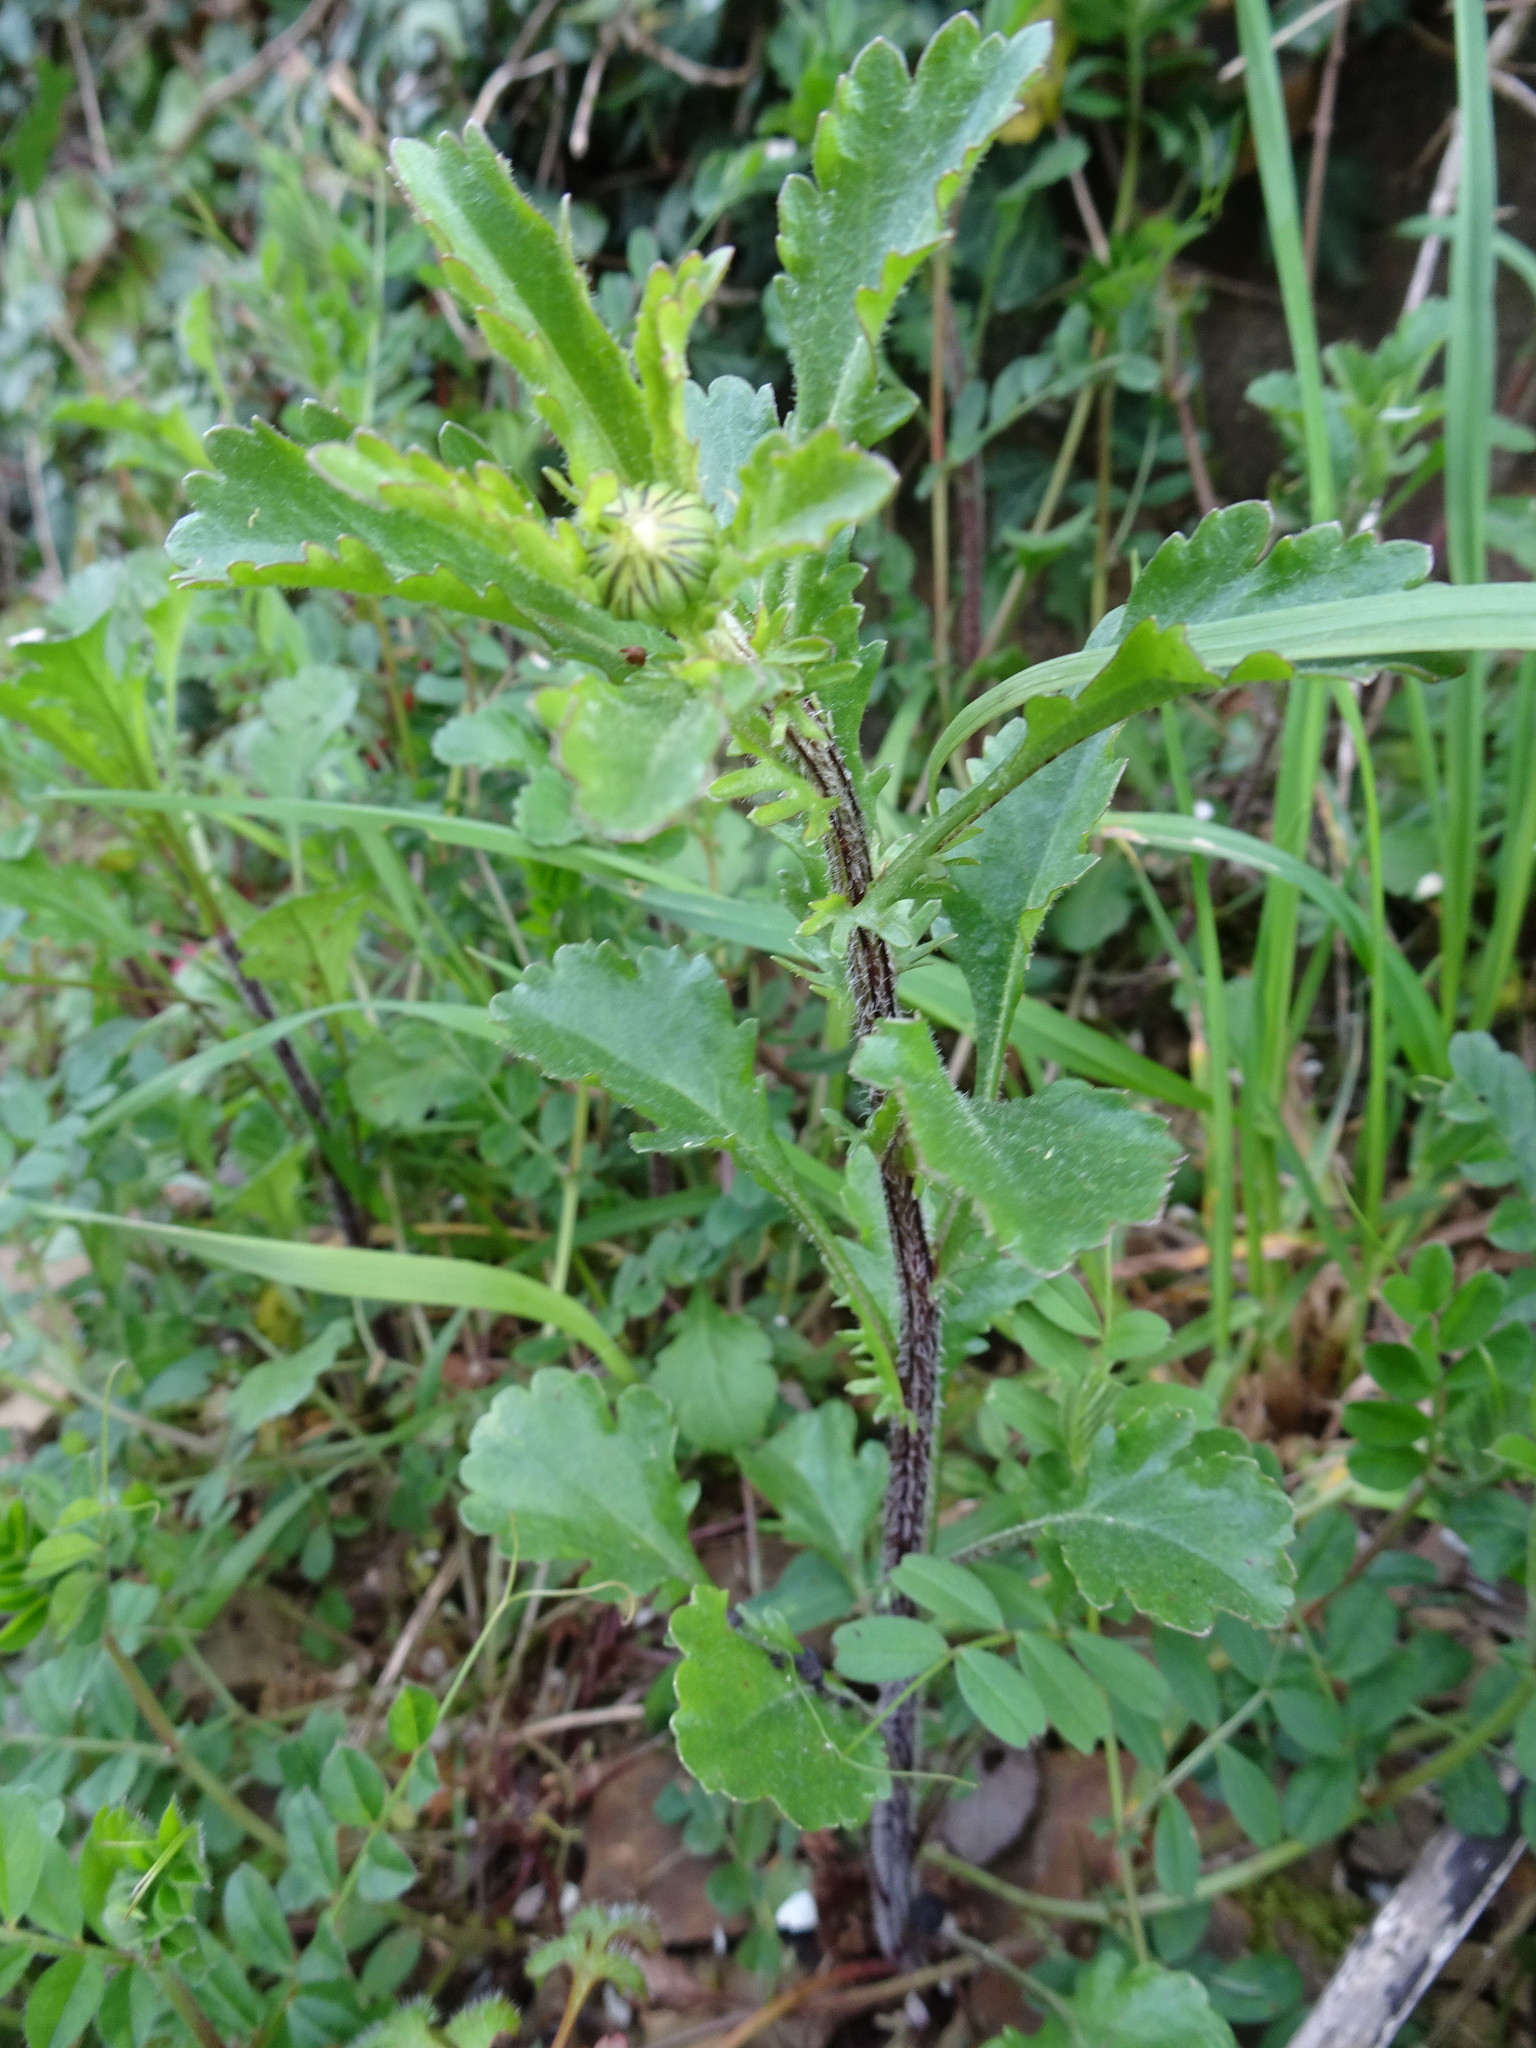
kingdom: Plantae
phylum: Tracheophyta
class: Magnoliopsida
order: Asterales
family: Asteraceae
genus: Leucanthemum
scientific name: Leucanthemum vulgare
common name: Oxeye daisy
